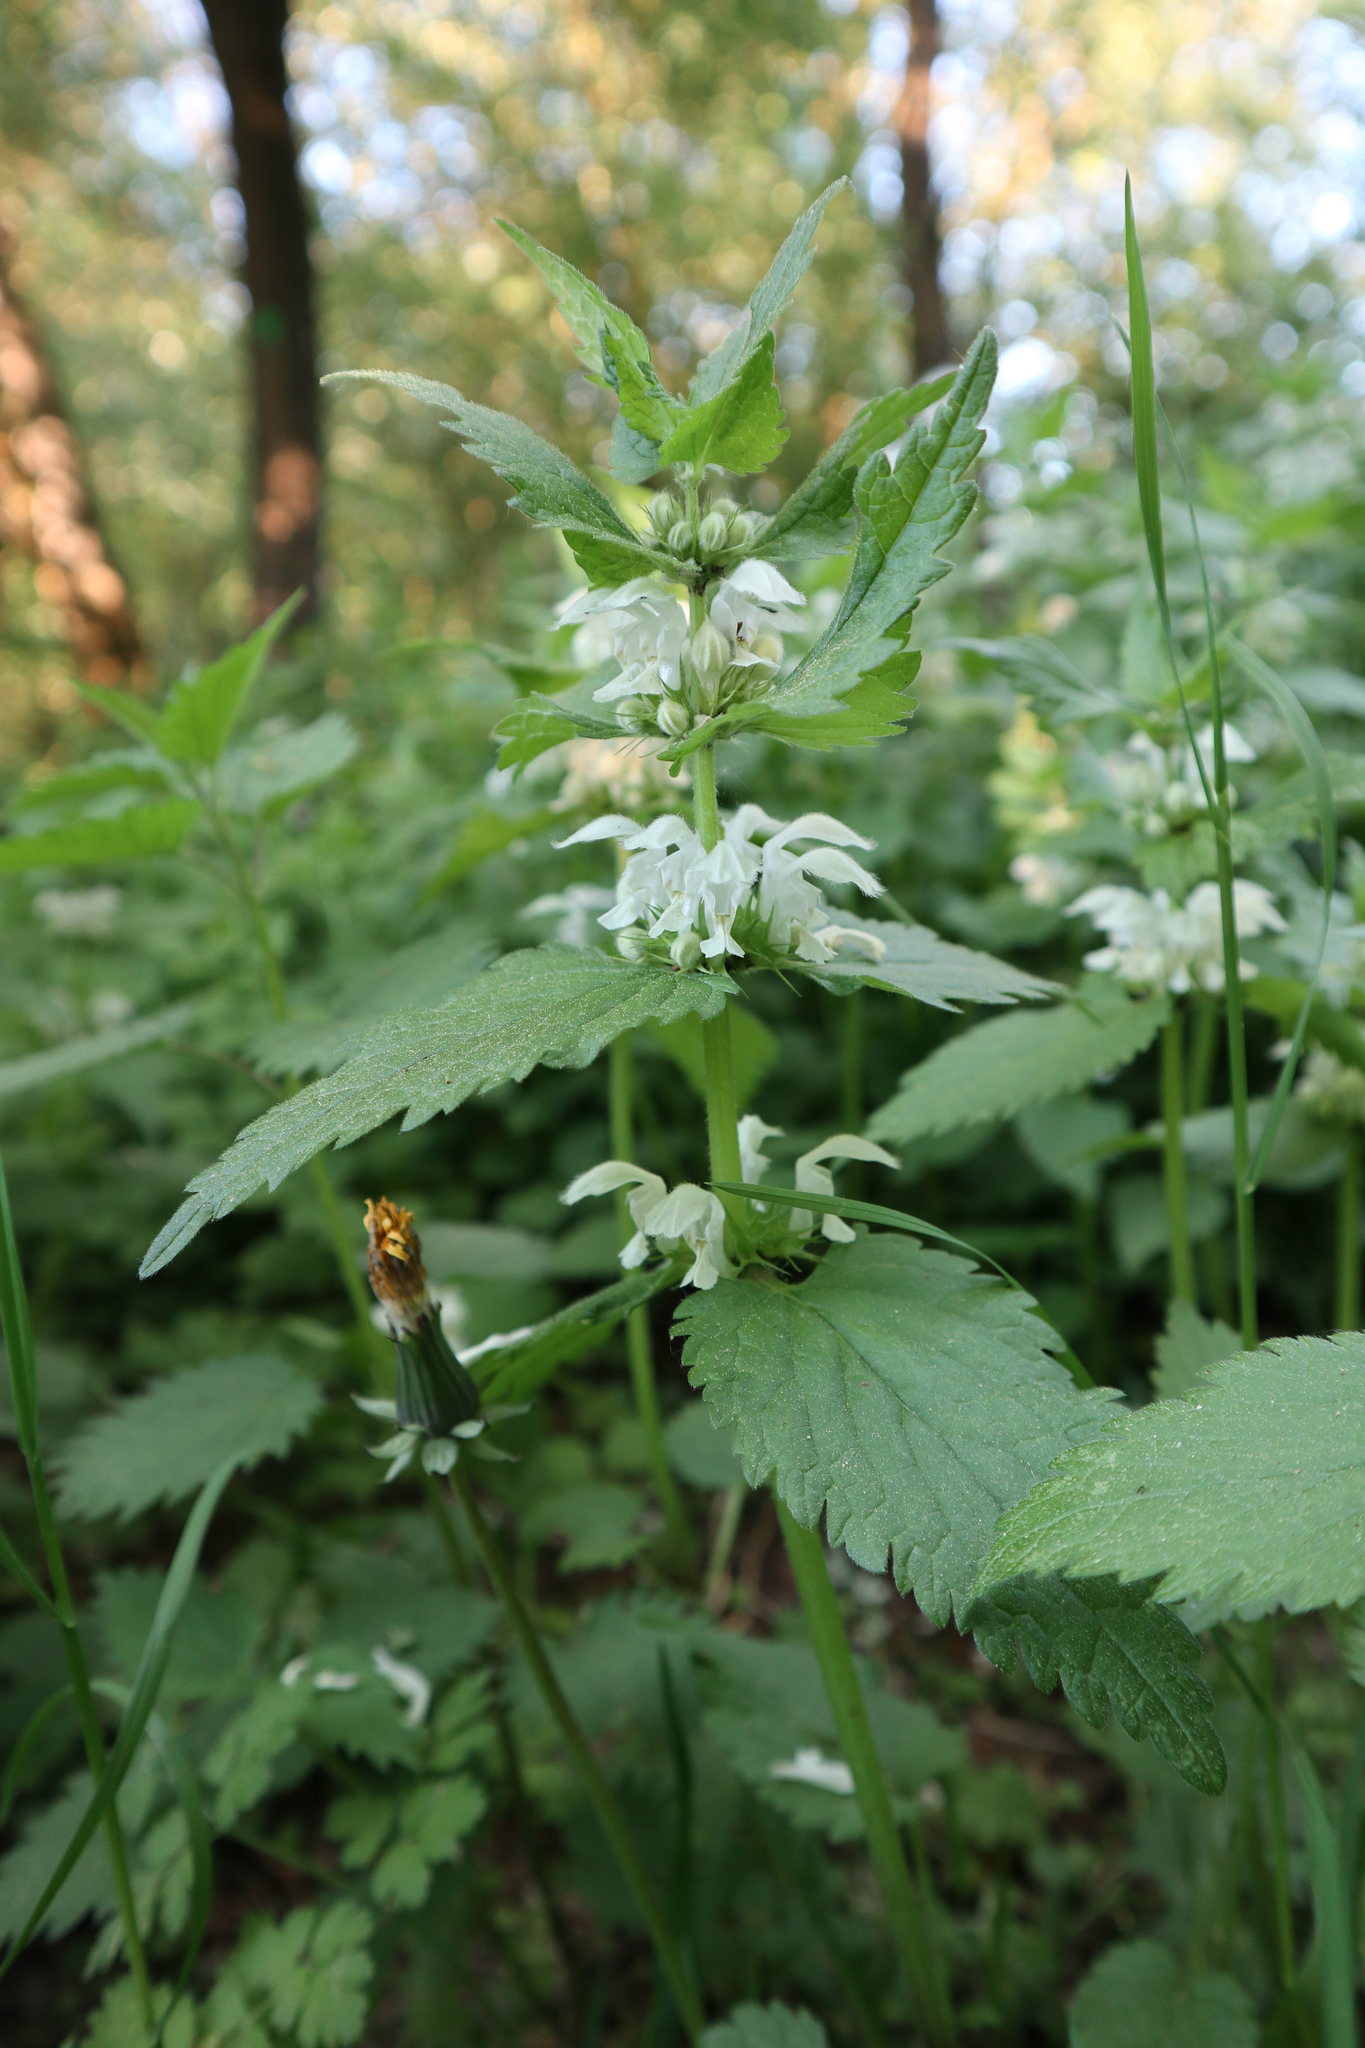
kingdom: Plantae
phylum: Tracheophyta
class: Magnoliopsida
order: Lamiales
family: Lamiaceae
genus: Lamium
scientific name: Lamium album
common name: White dead-nettle
